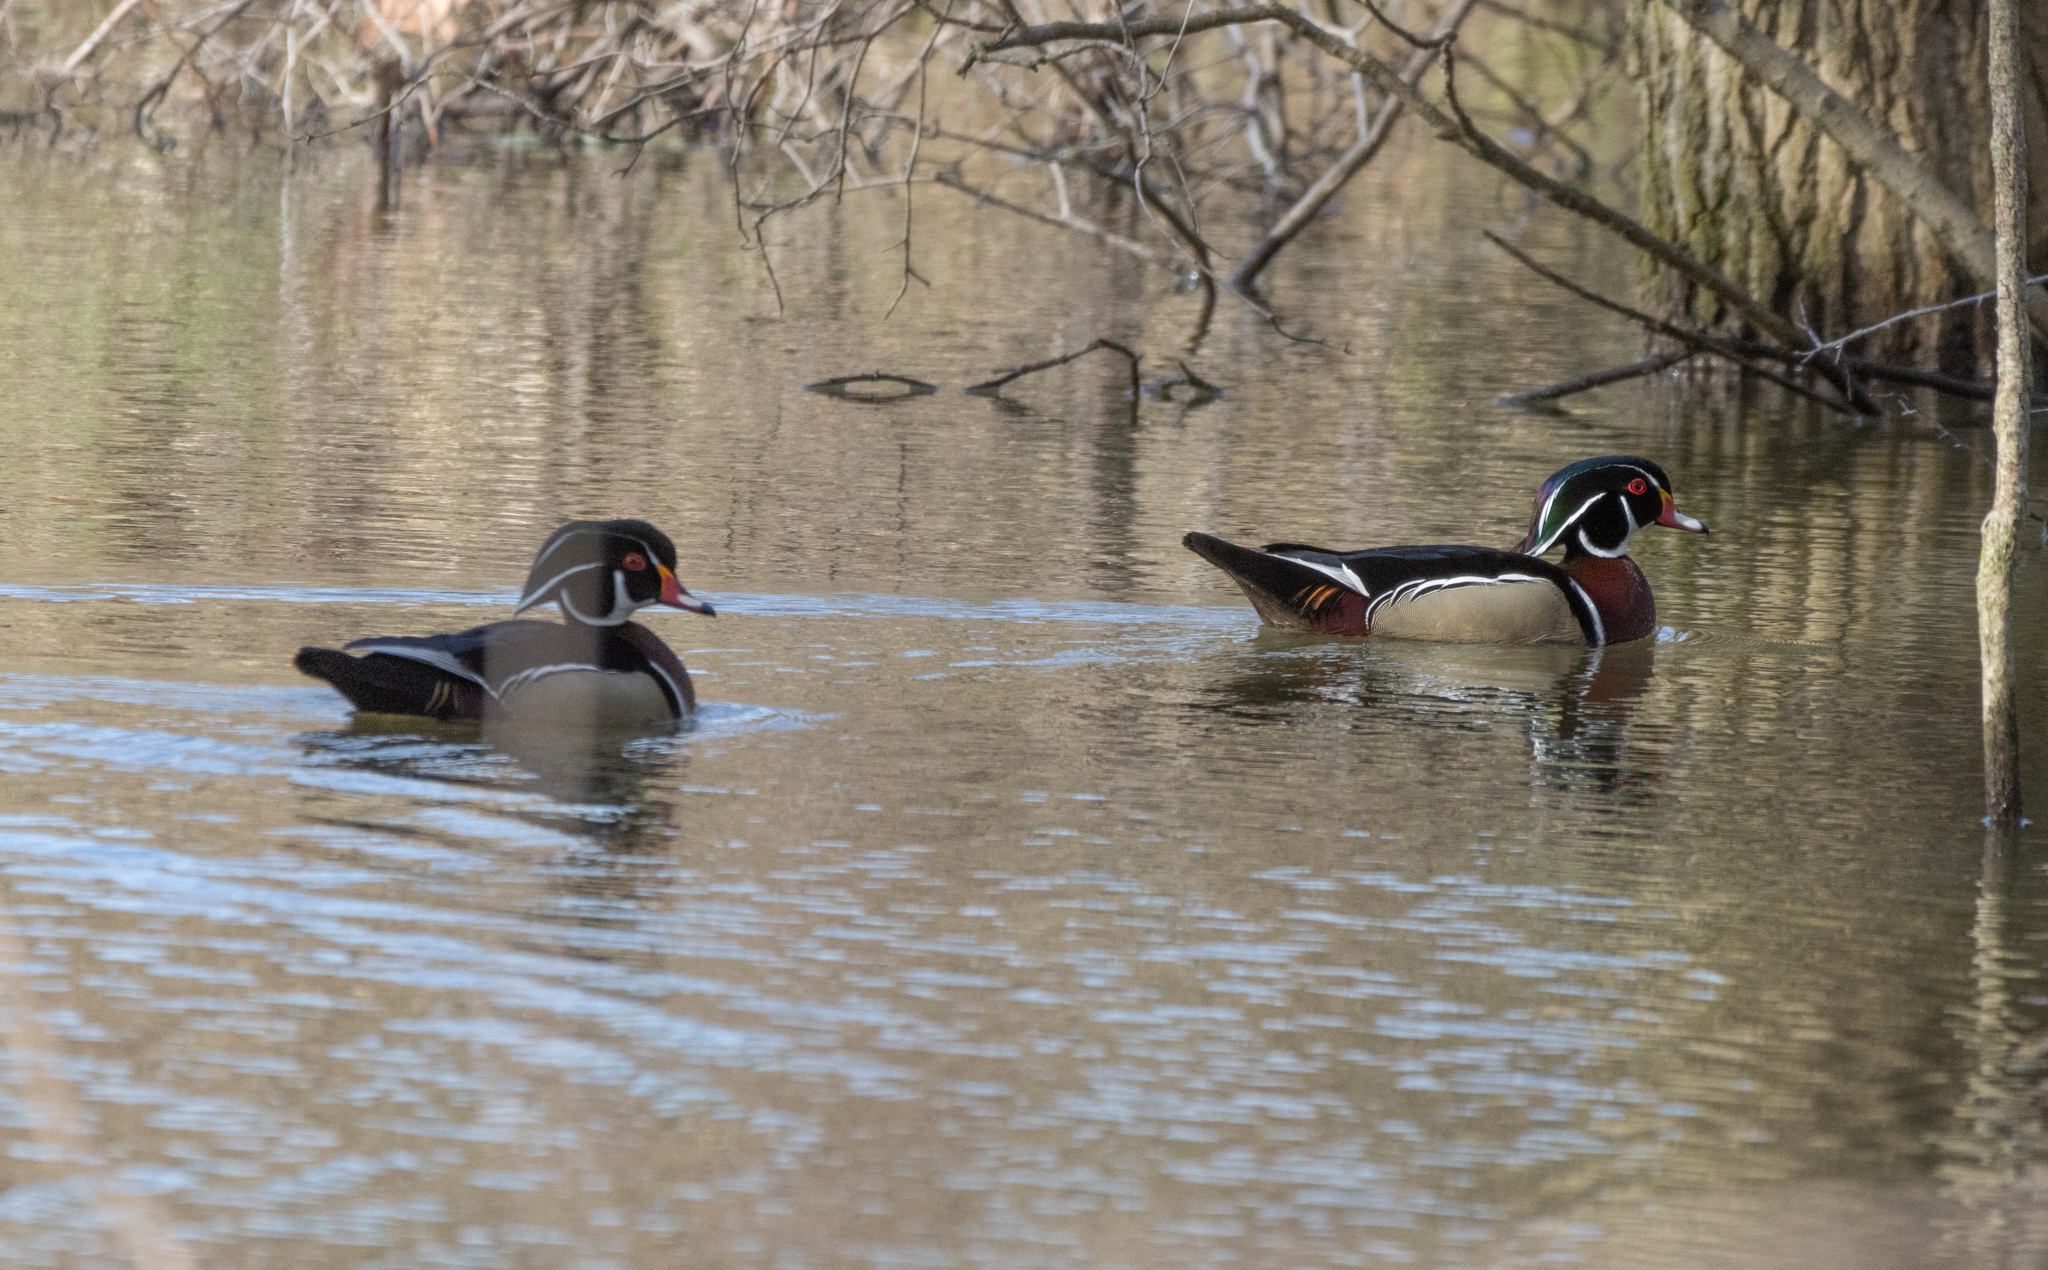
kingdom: Animalia
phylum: Chordata
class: Aves
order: Anseriformes
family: Anatidae
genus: Aix
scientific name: Aix sponsa
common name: Wood duck
